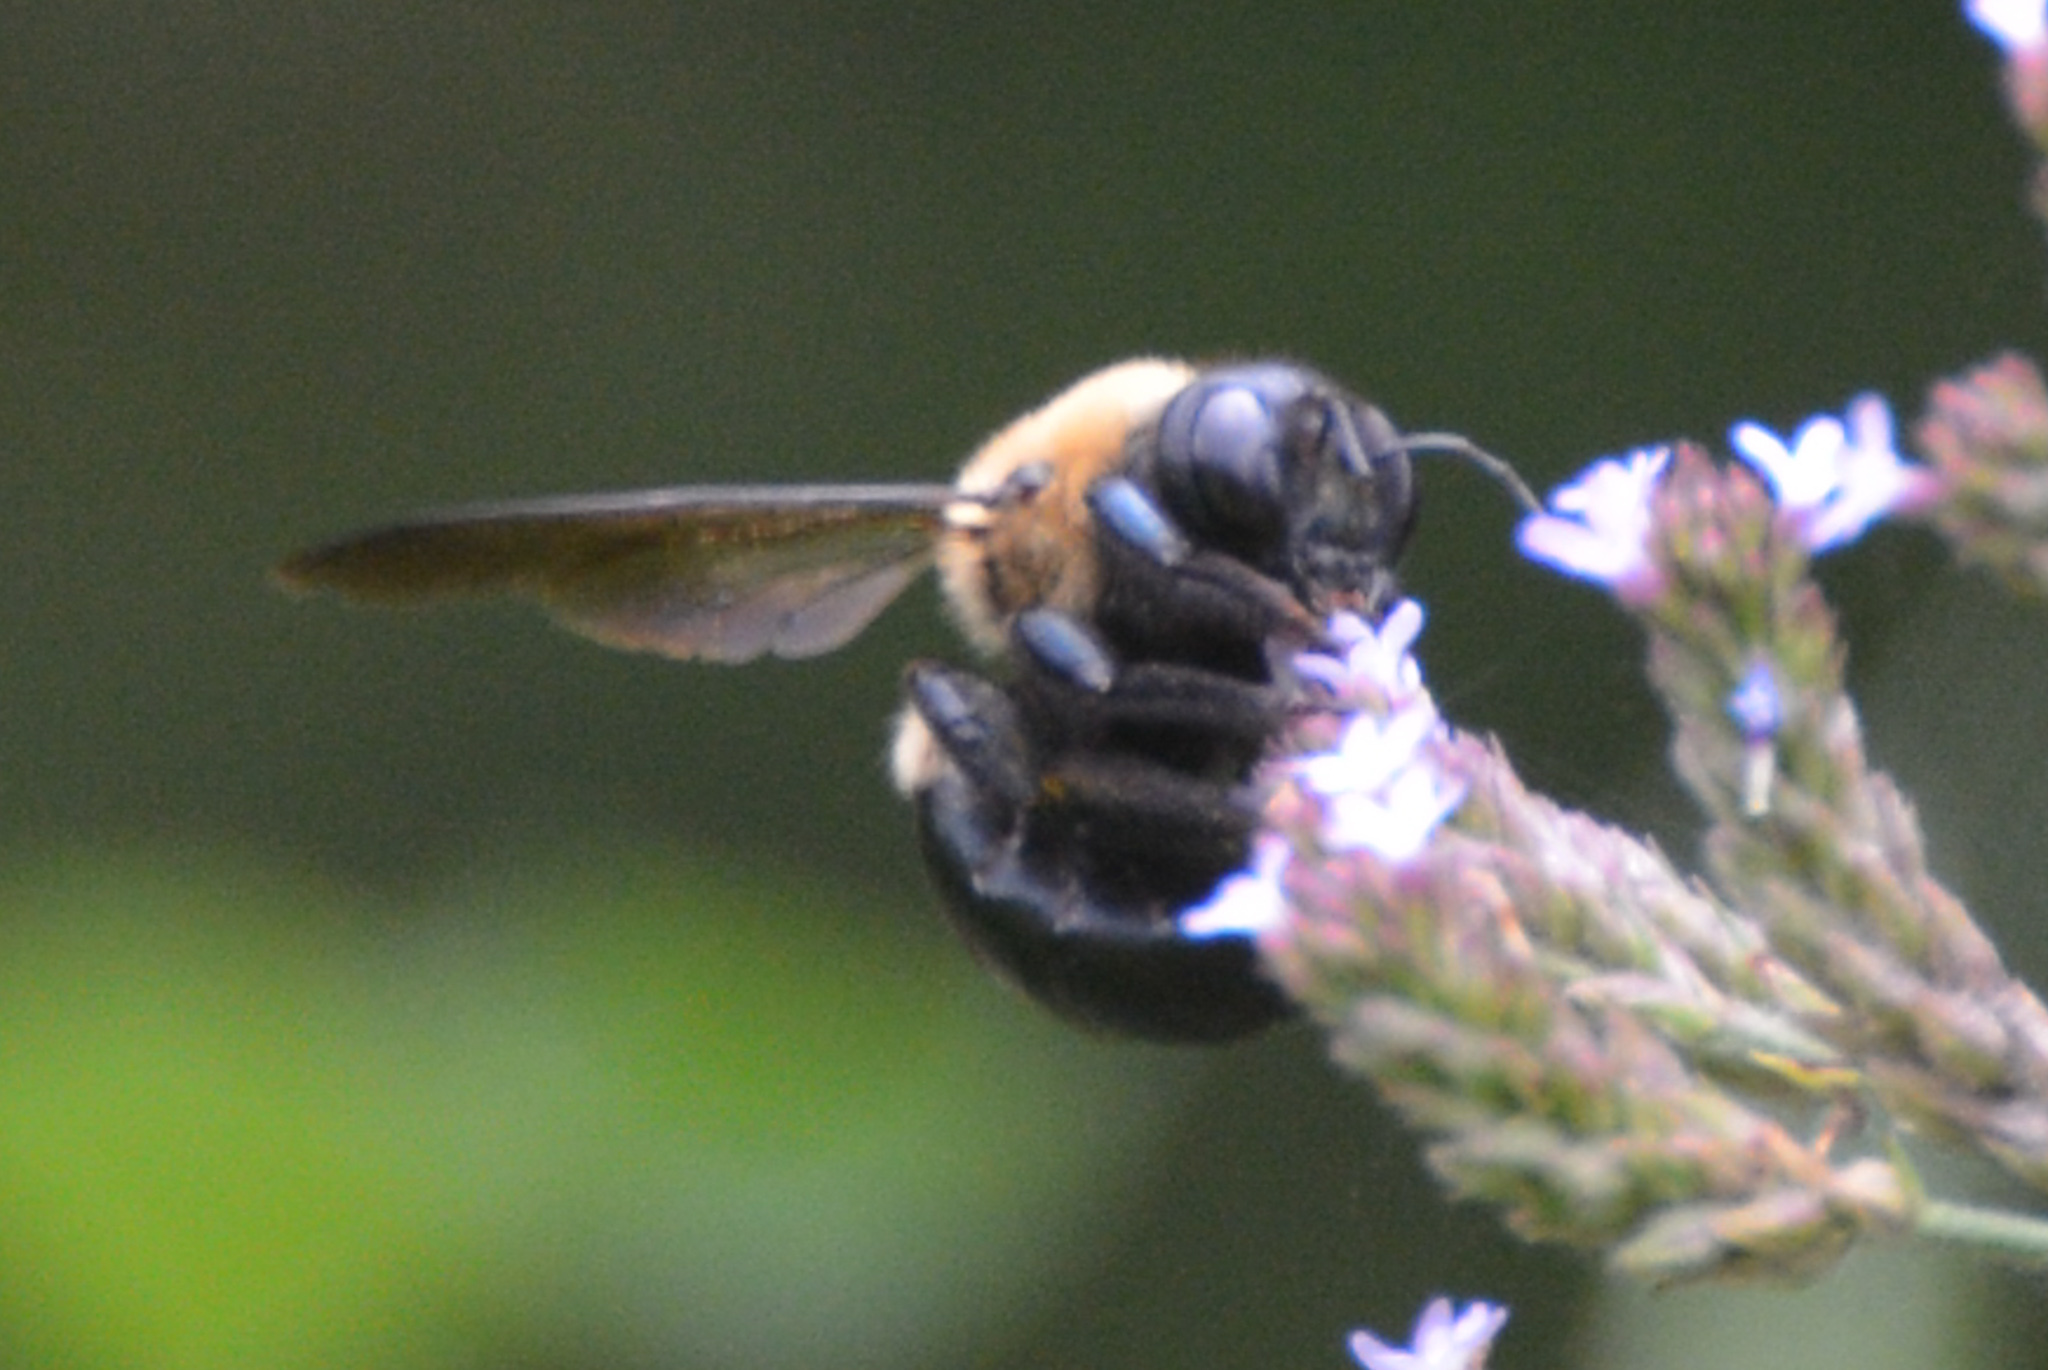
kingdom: Animalia
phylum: Arthropoda
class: Insecta
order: Hymenoptera
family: Apidae
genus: Xylocopa
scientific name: Xylocopa virginica
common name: Carpenter bee
